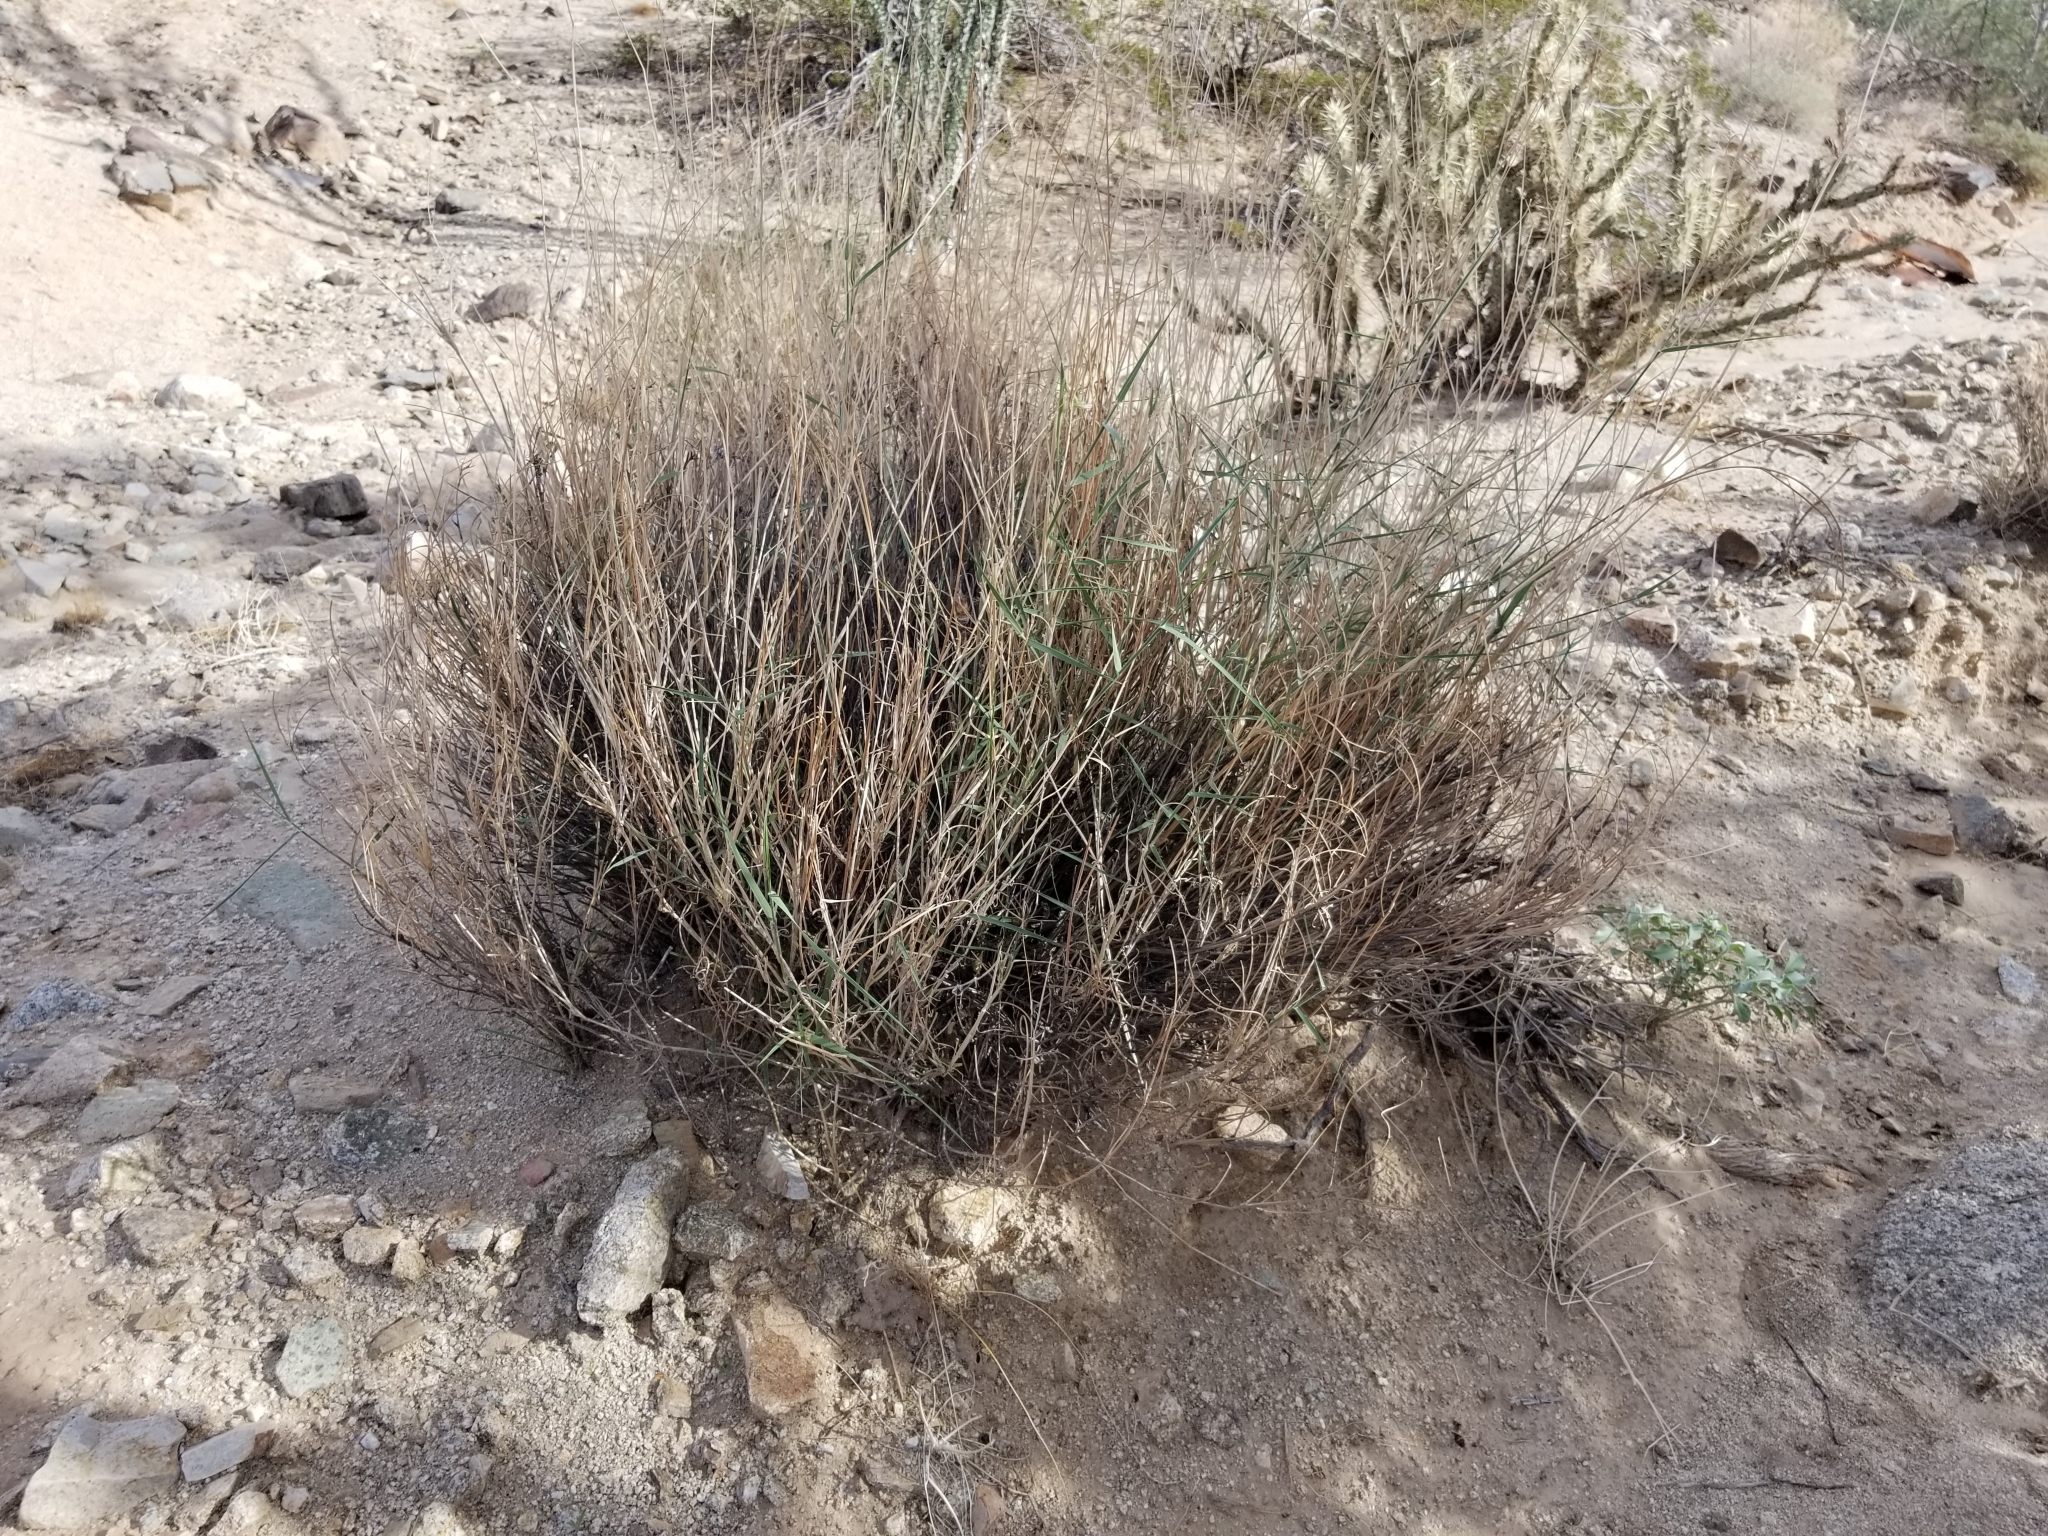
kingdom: Plantae
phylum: Tracheophyta
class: Liliopsida
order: Poales
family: Poaceae
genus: Hilaria
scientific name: Hilaria rigida
